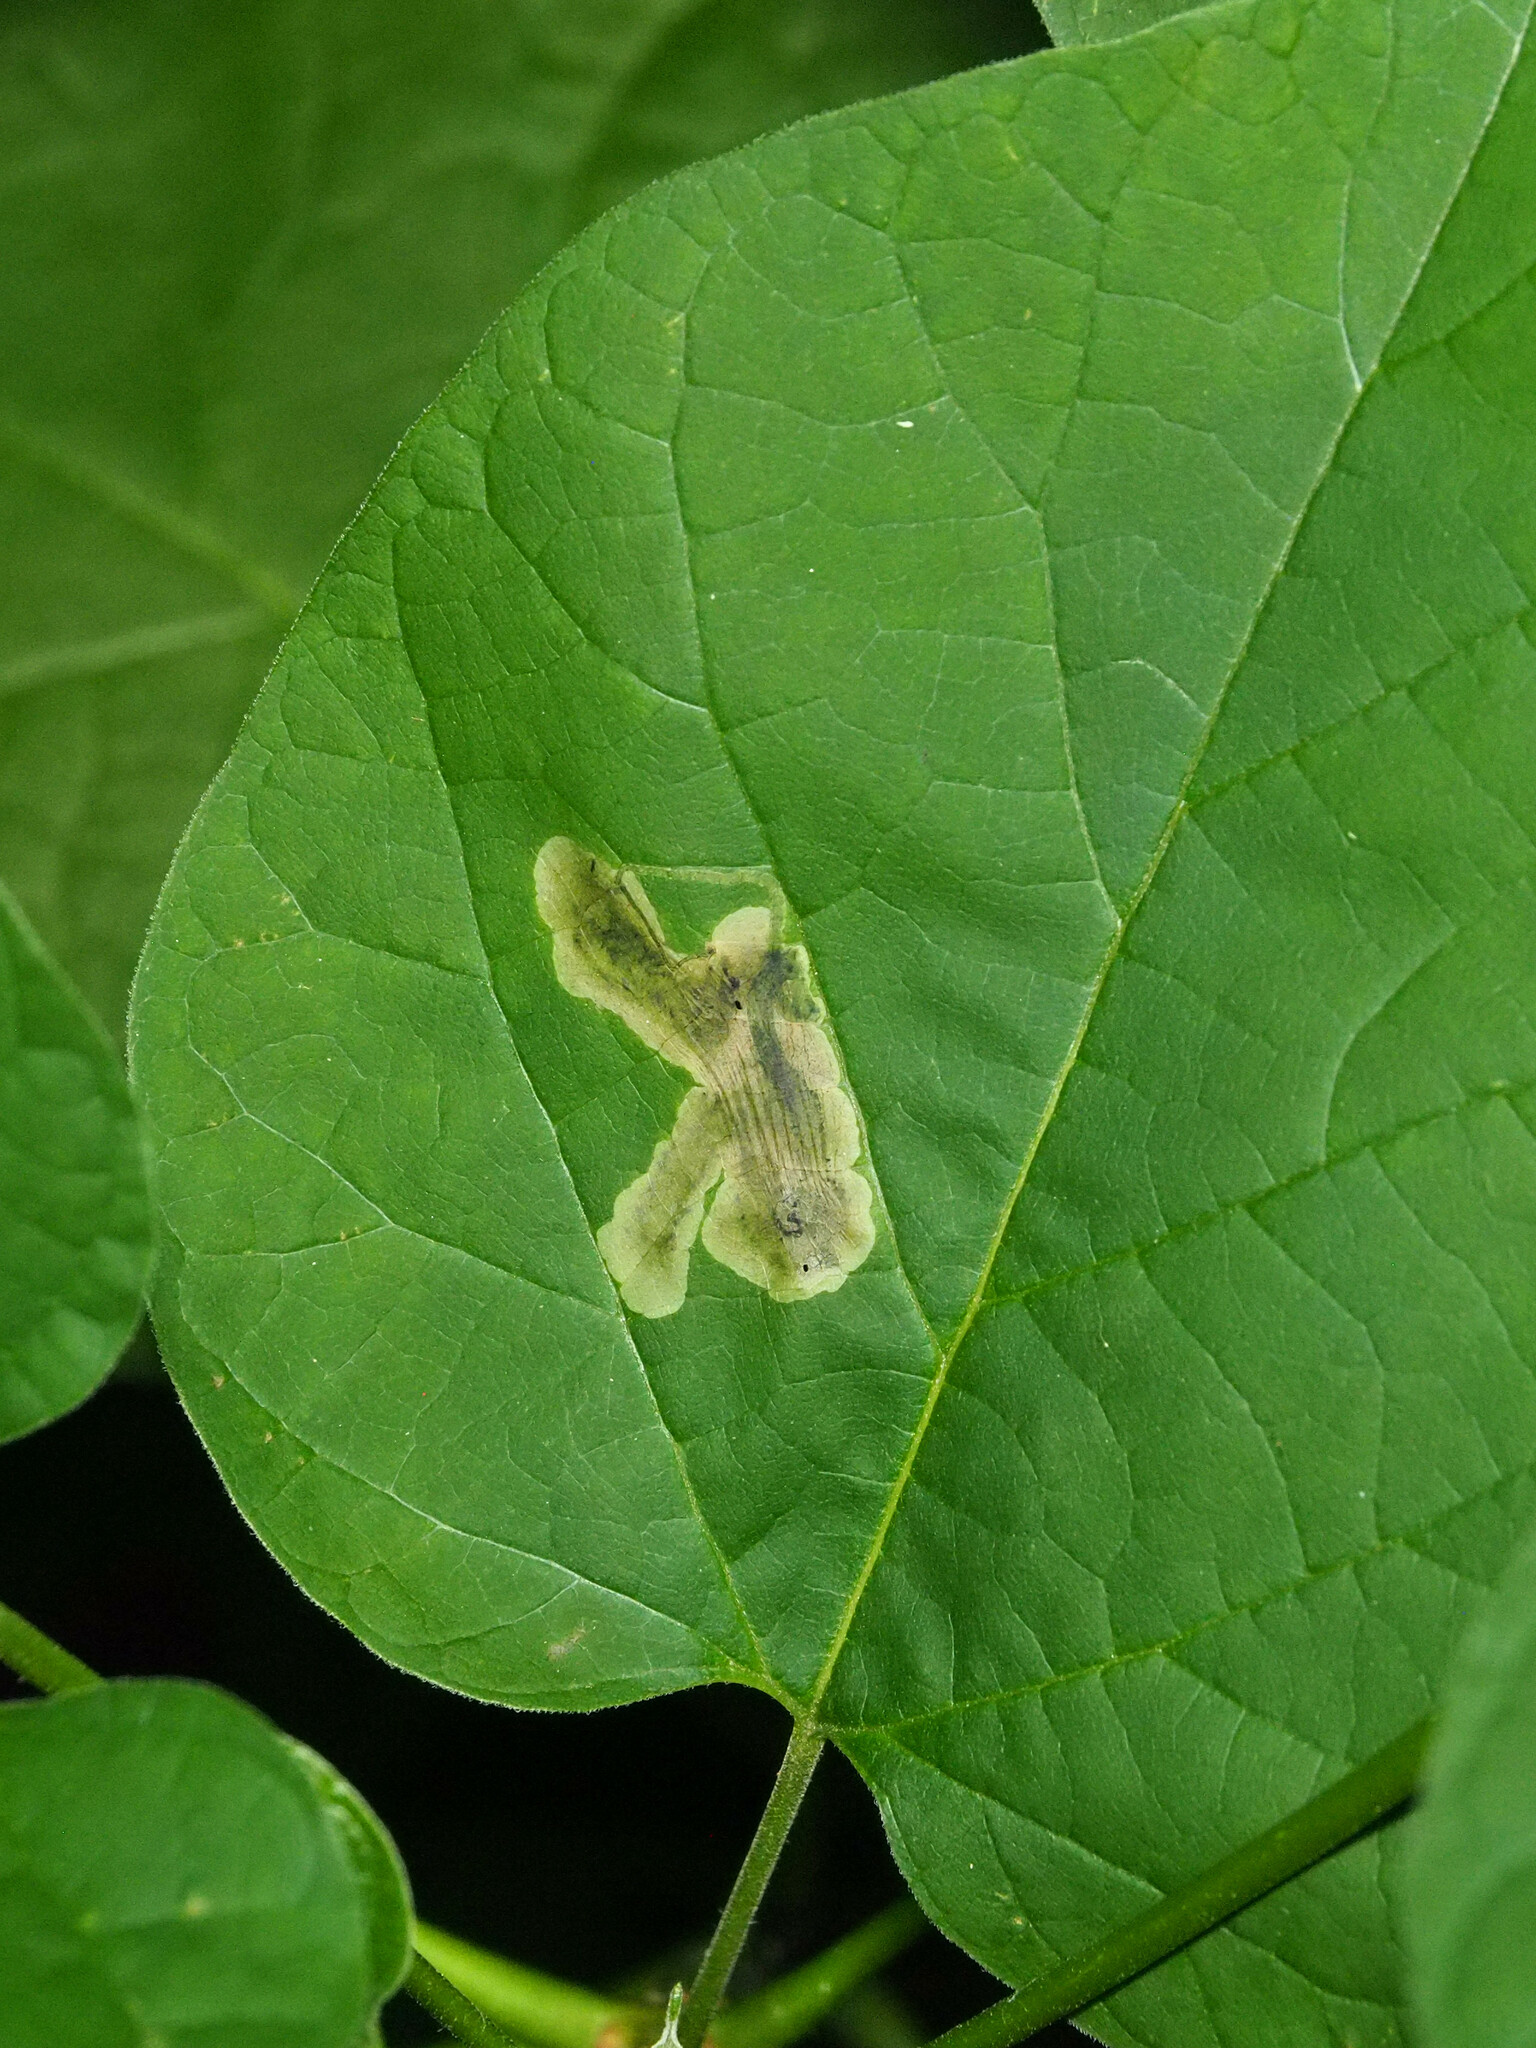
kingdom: Animalia
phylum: Arthropoda
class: Insecta
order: Diptera
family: Agromyzidae
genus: Amauromyza
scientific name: Amauromyza pleuralis
